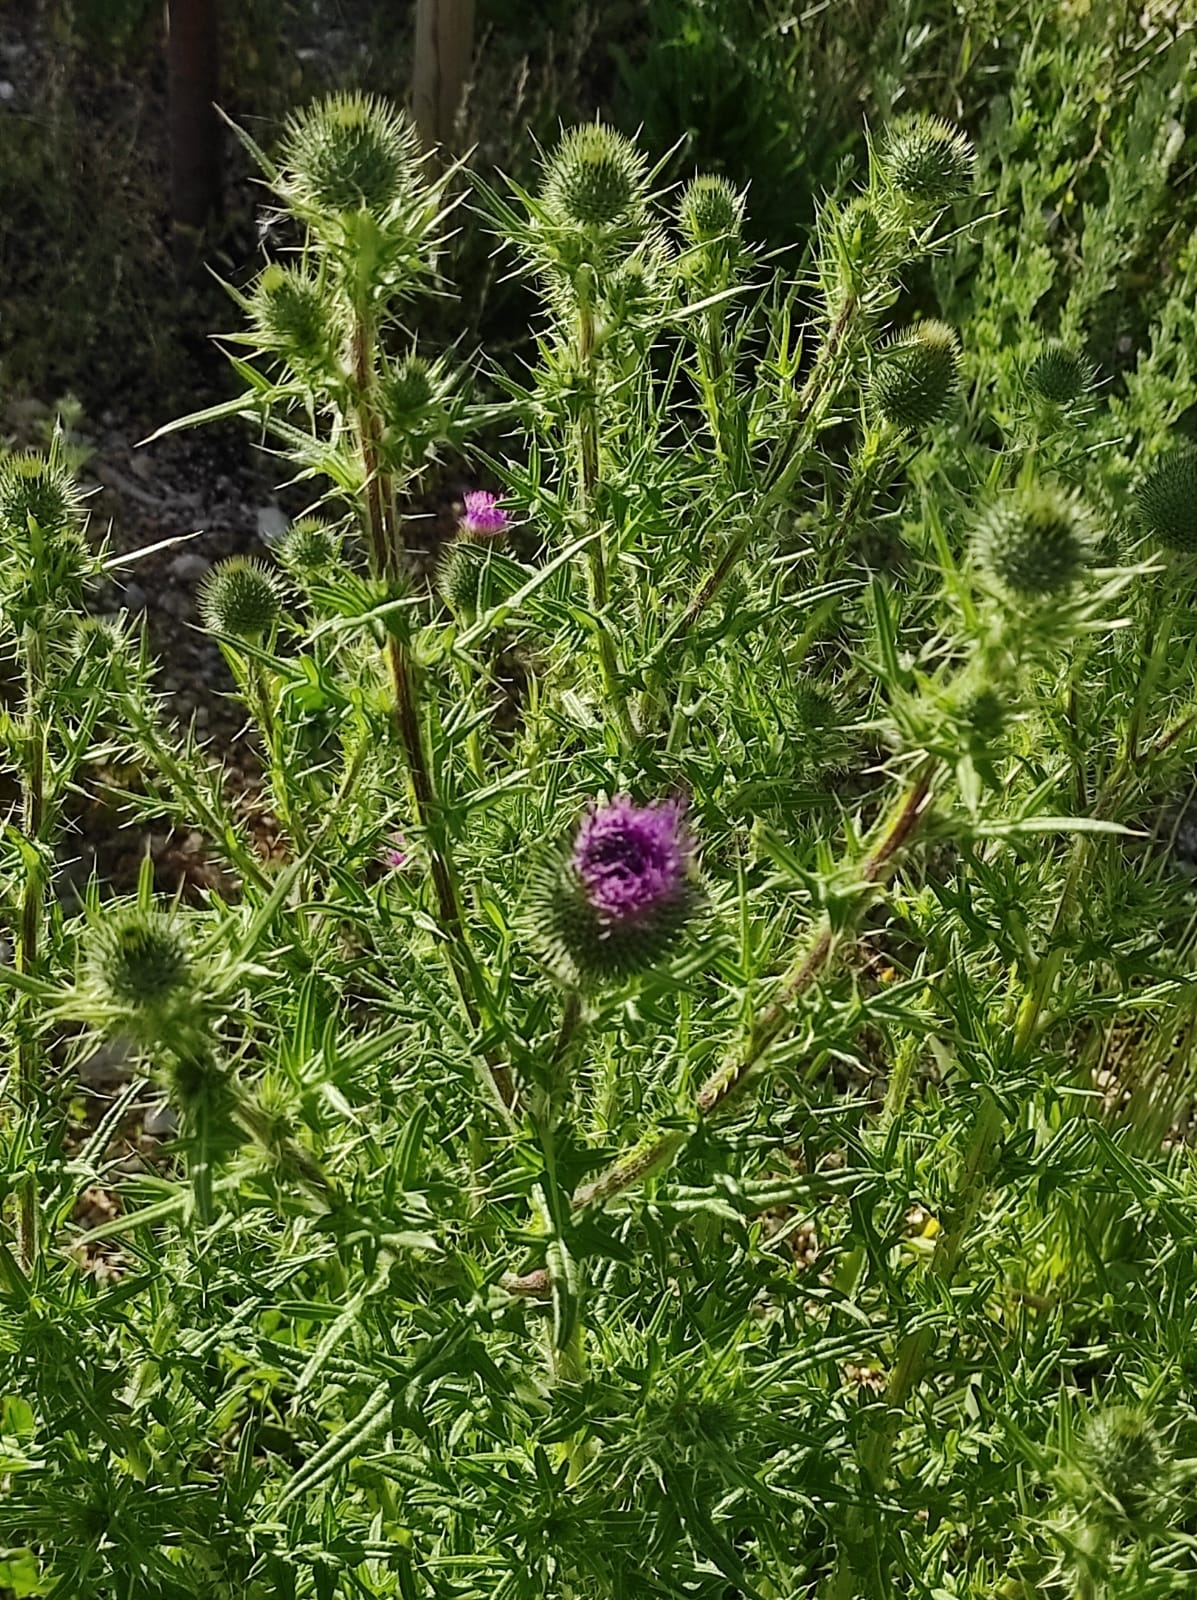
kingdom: Plantae
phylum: Tracheophyta
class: Magnoliopsida
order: Asterales
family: Asteraceae
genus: Cirsium
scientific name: Cirsium vulgare
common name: Bull thistle
